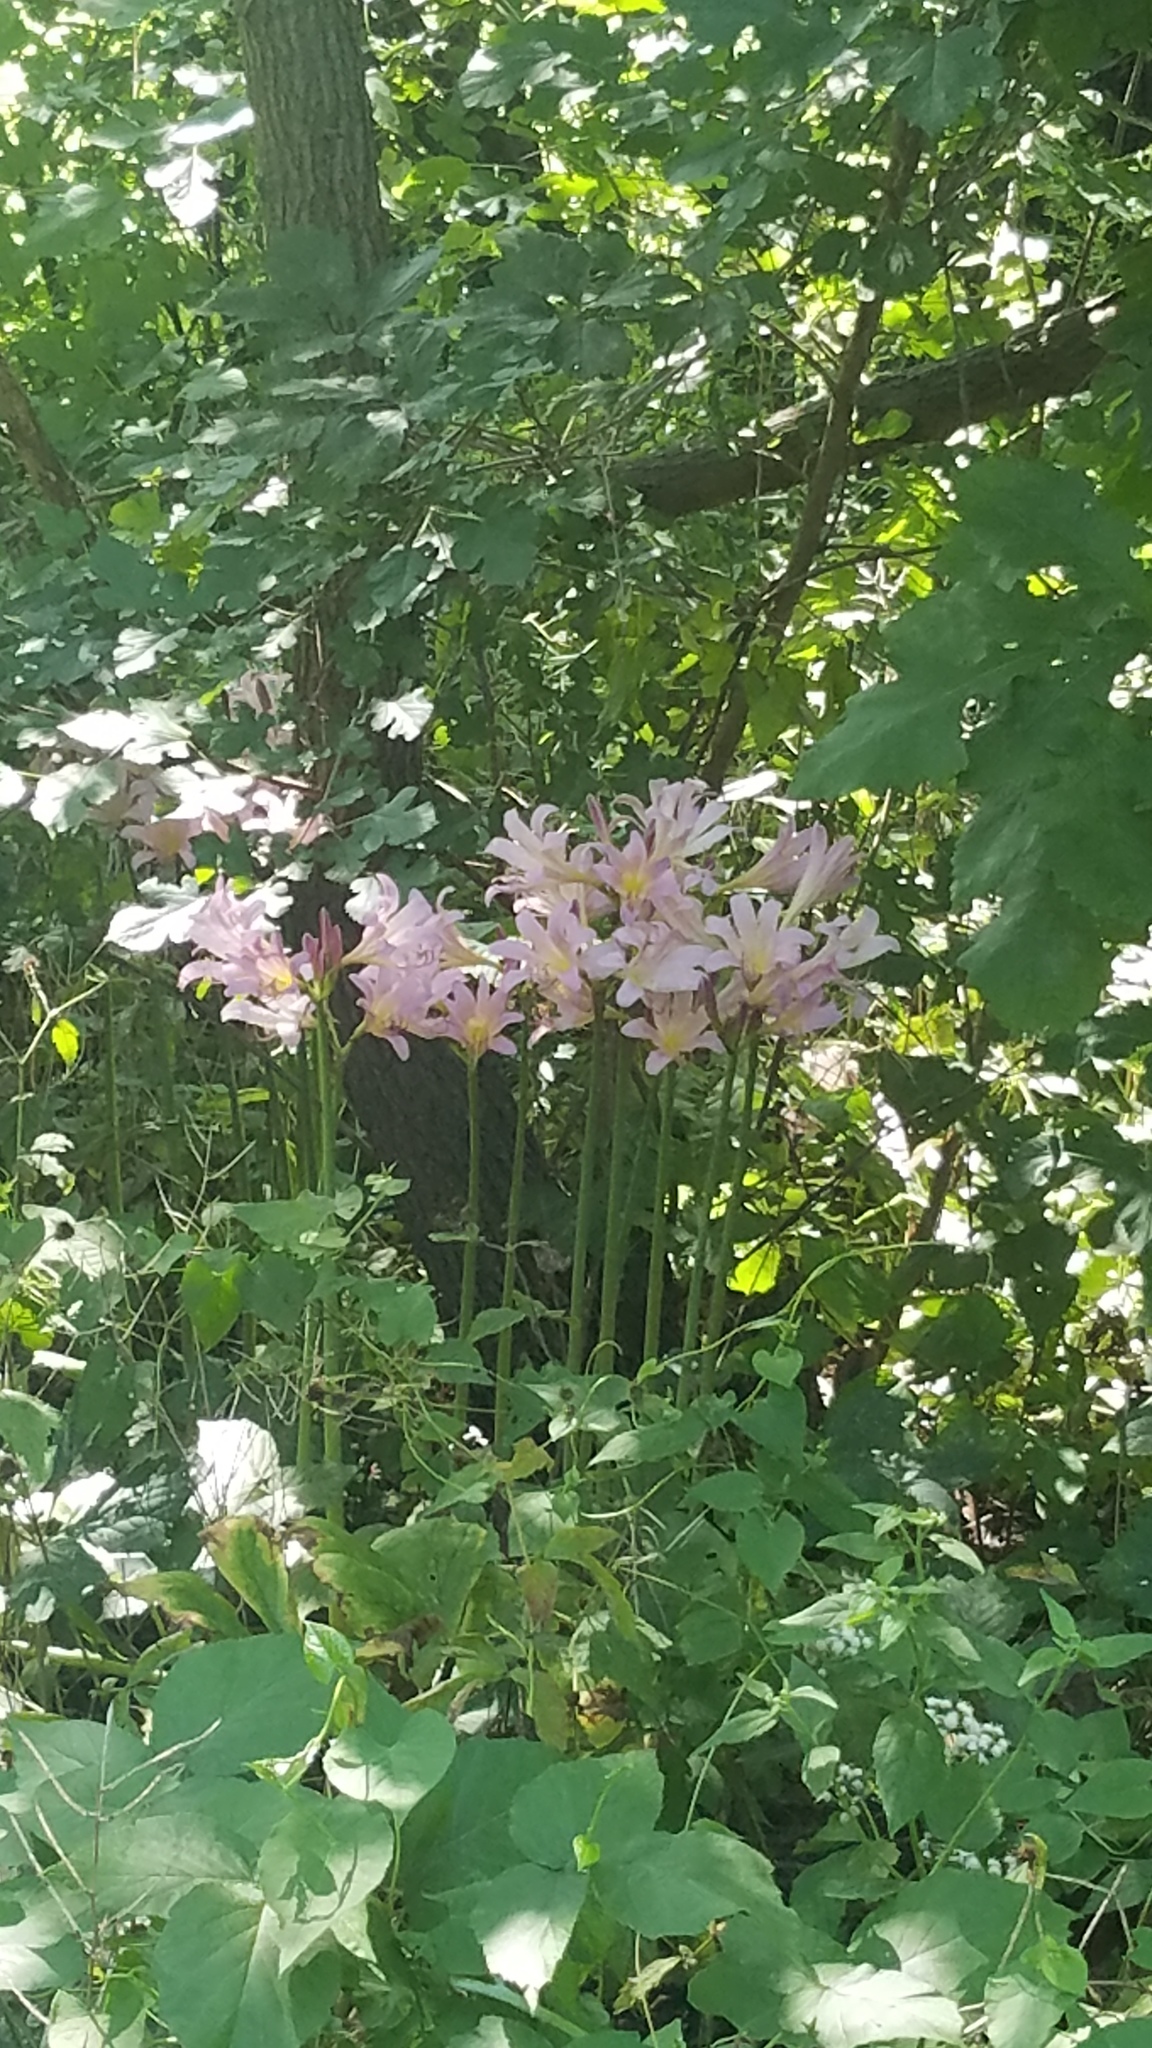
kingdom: Plantae
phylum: Tracheophyta
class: Liliopsida
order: Asparagales
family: Amaryllidaceae
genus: Lycoris
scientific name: Lycoris squamigera
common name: Magic-lily
